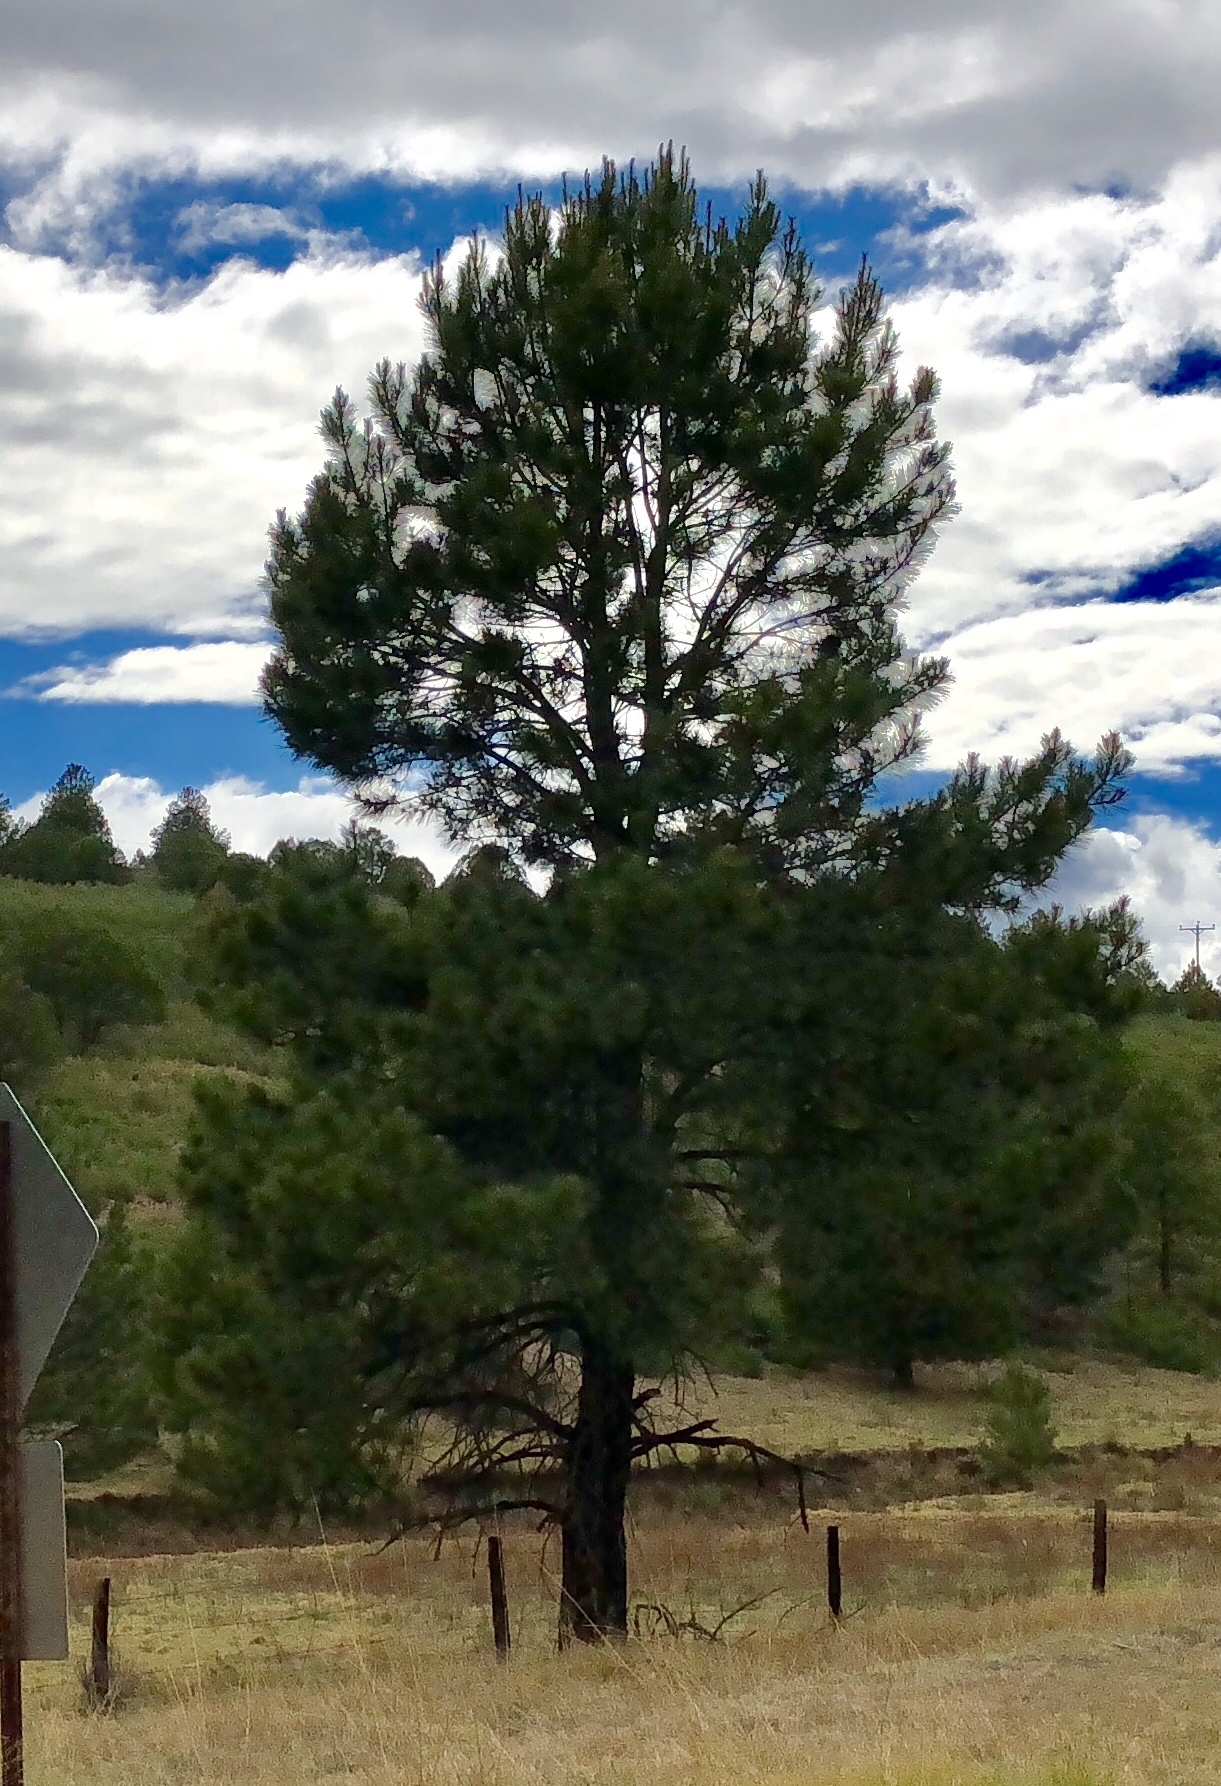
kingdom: Plantae
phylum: Tracheophyta
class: Pinopsida
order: Pinales
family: Pinaceae
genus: Pinus
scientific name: Pinus ponderosa
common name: Western yellow-pine
